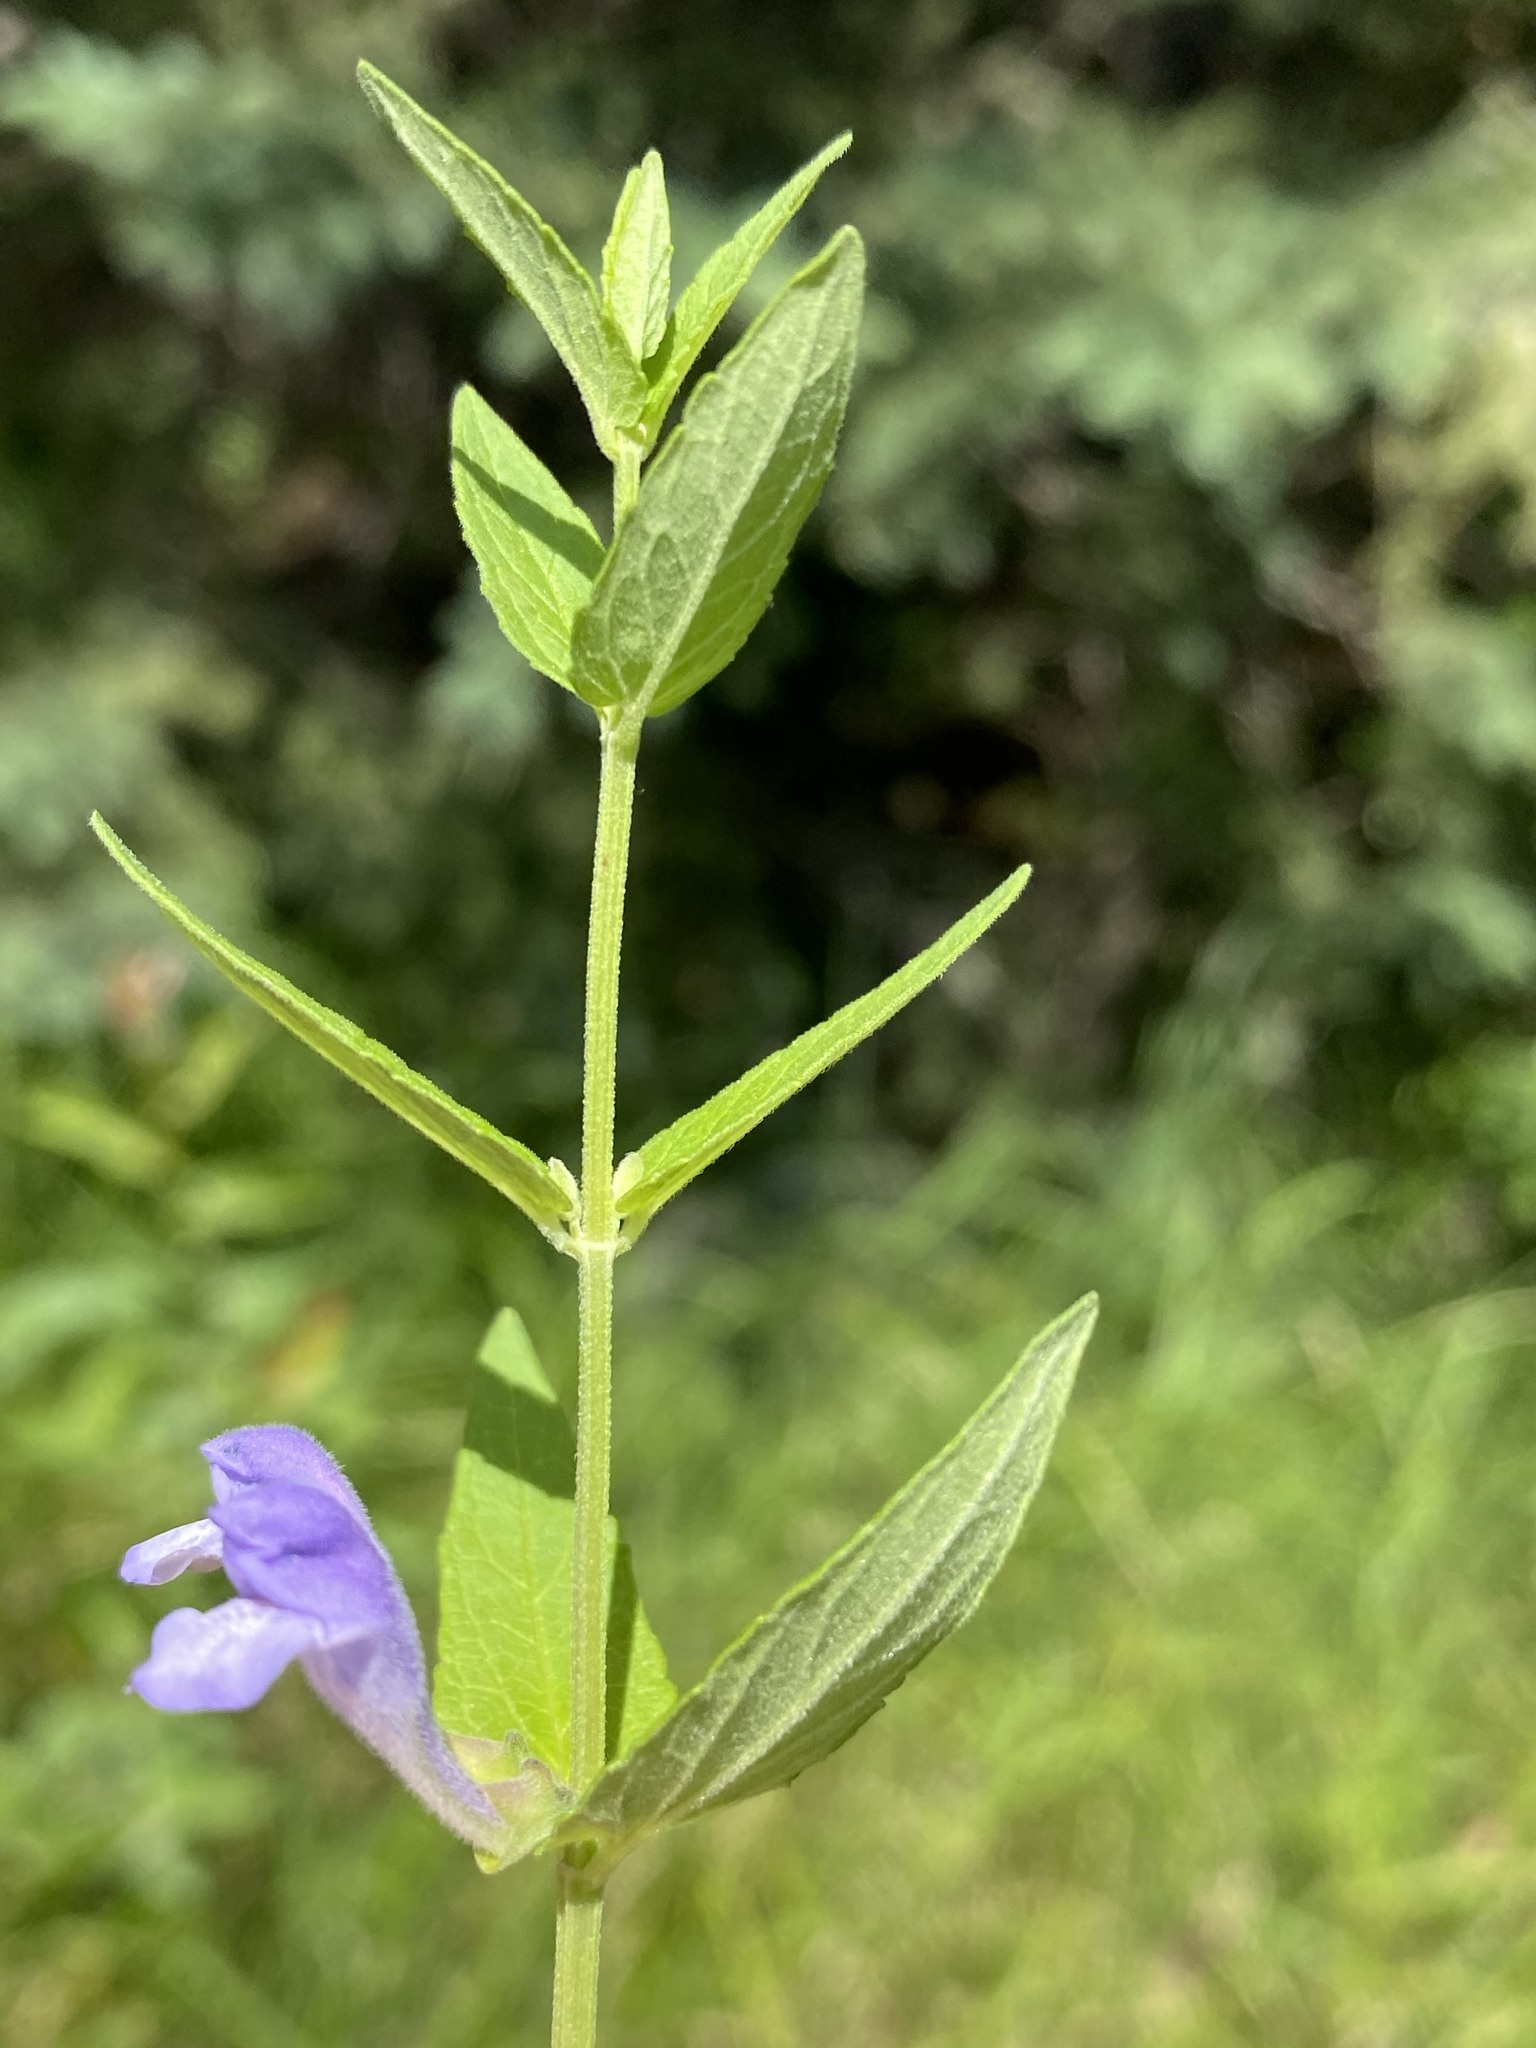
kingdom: Plantae
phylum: Tracheophyta
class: Magnoliopsida
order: Lamiales
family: Lamiaceae
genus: Scutellaria
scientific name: Scutellaria galericulata
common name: Skullcap
